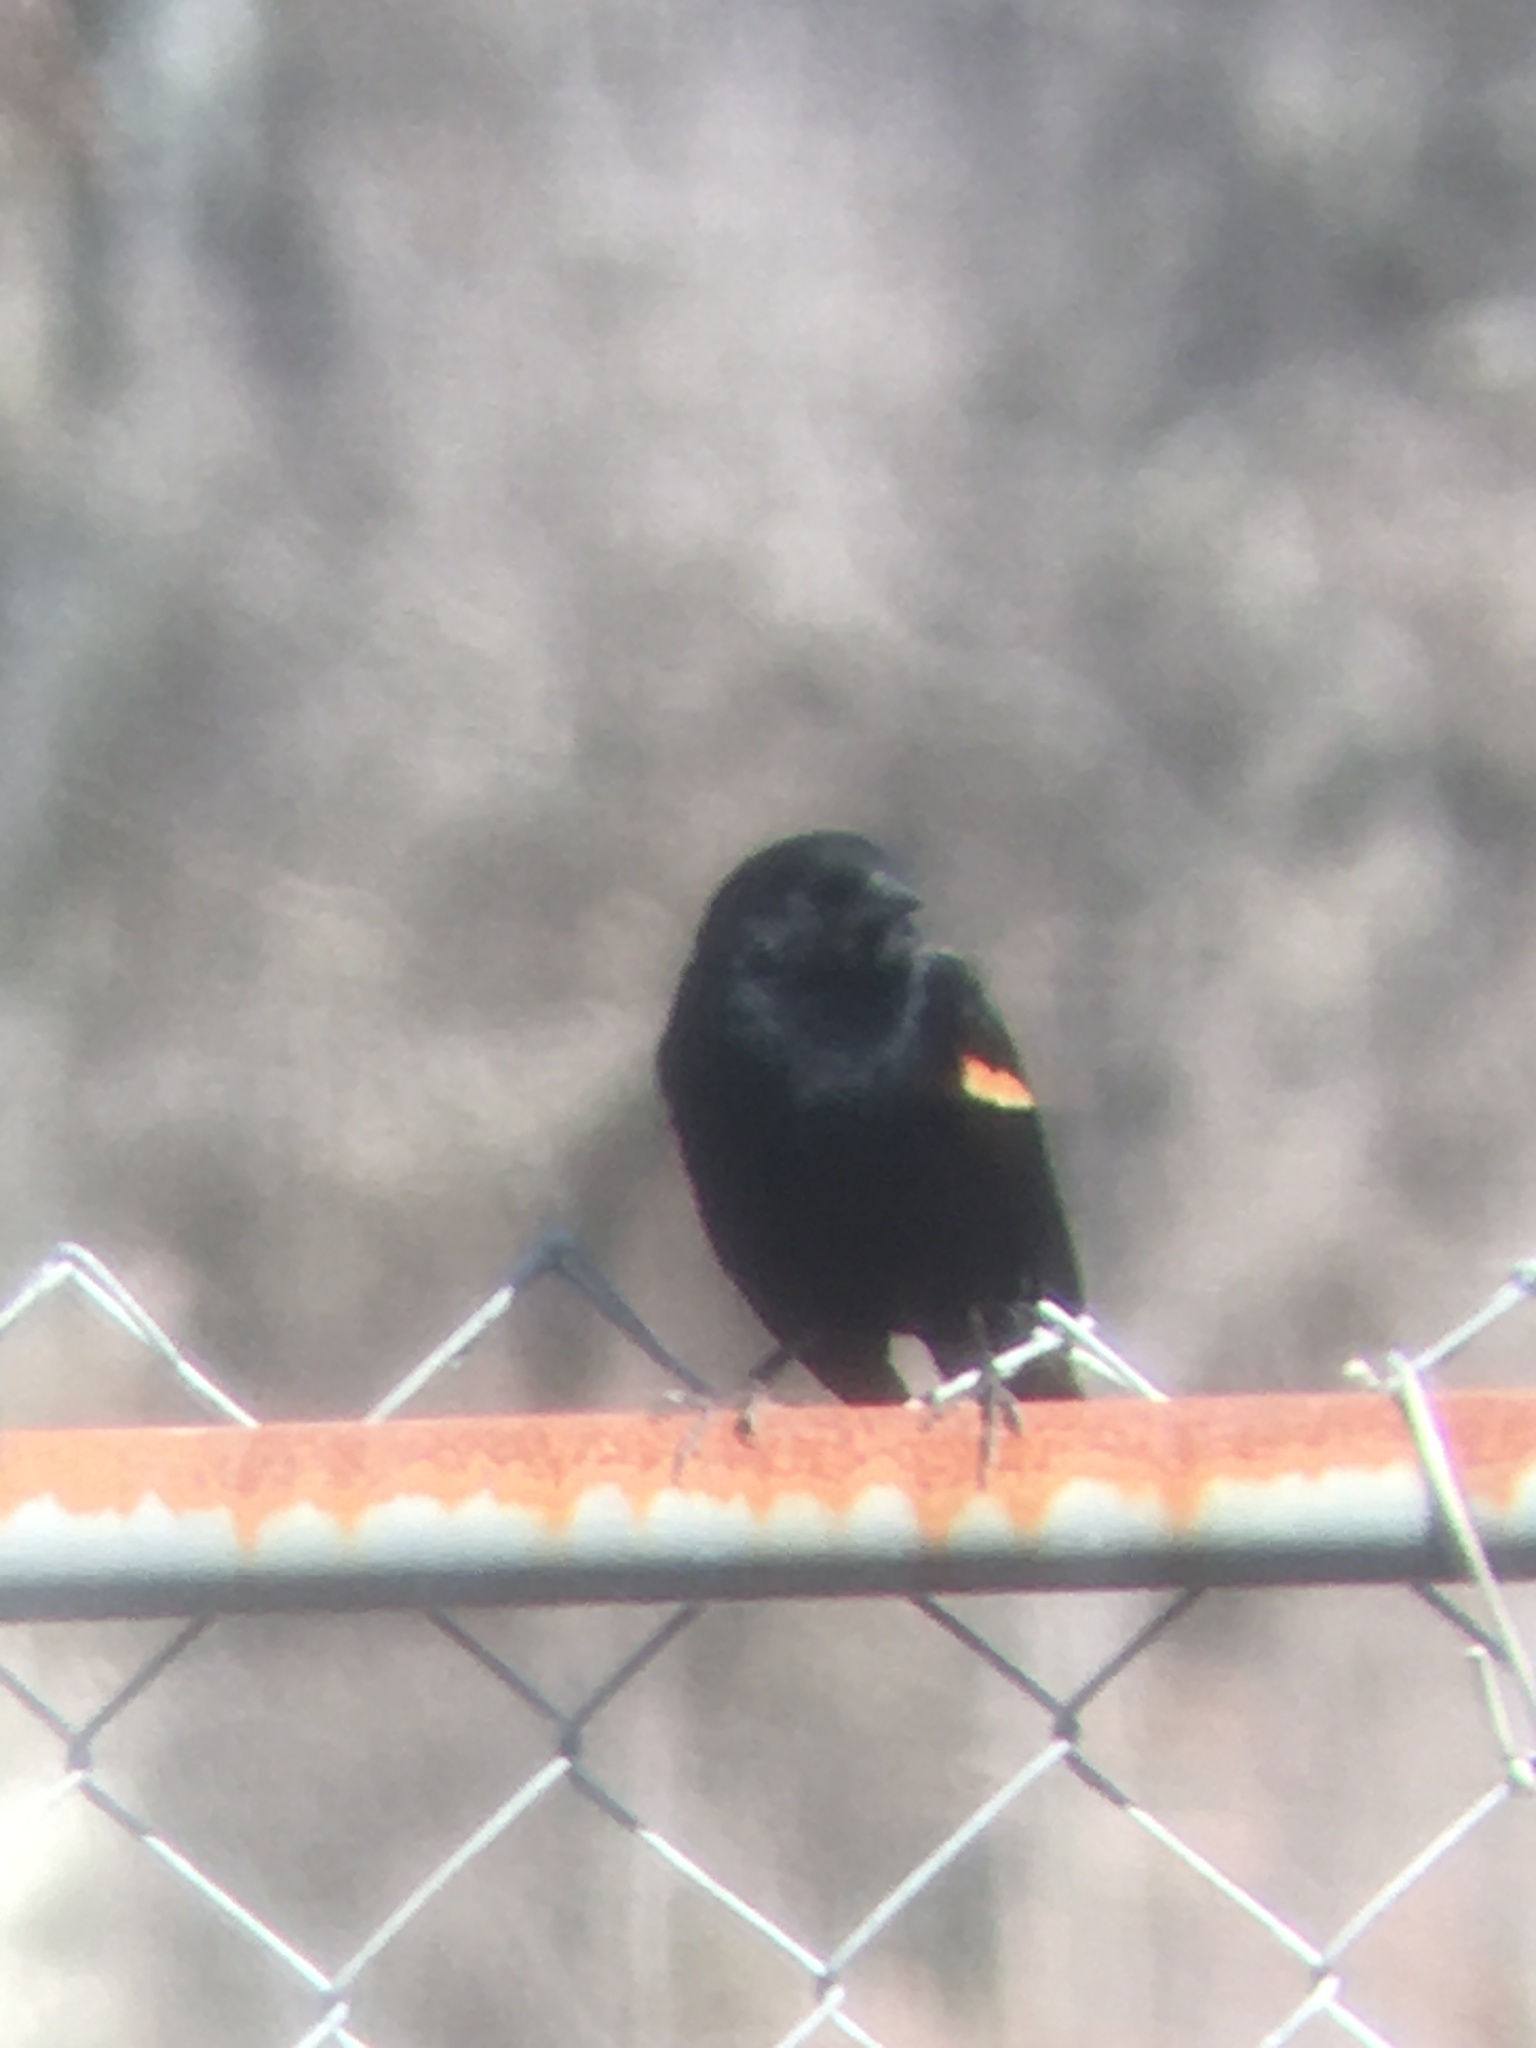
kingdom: Animalia
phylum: Chordata
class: Aves
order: Passeriformes
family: Icteridae
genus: Agelaius
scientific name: Agelaius phoeniceus
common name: Red-winged blackbird
